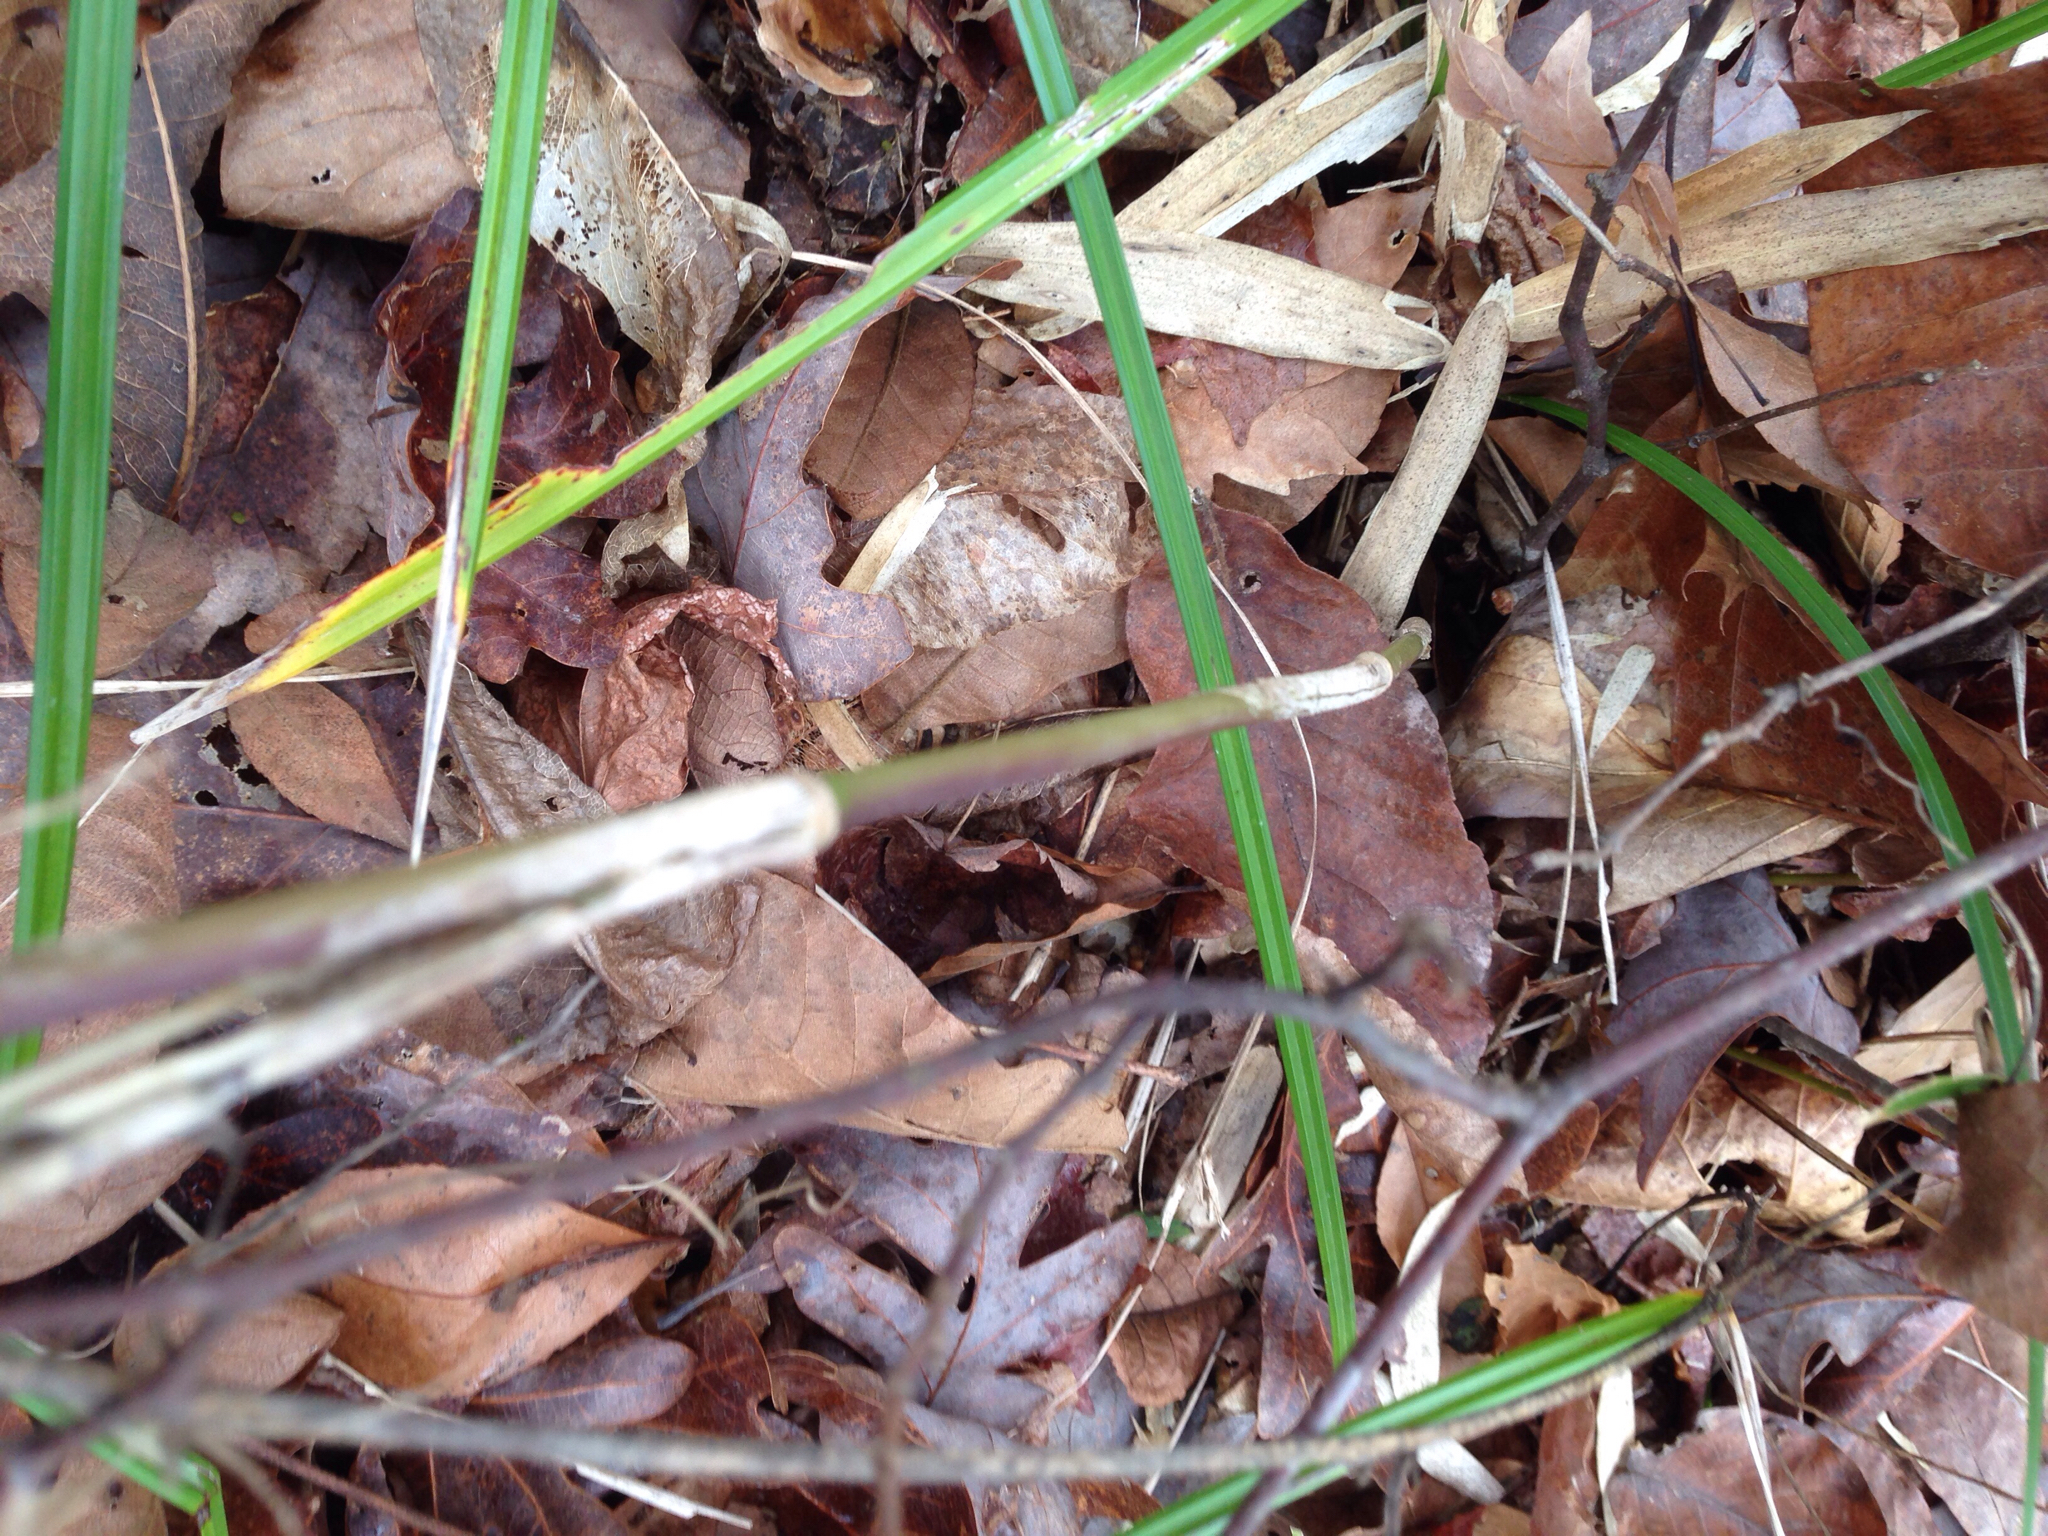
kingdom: Plantae
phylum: Tracheophyta
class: Liliopsida
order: Poales
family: Poaceae
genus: Arundinaria
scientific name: Arundinaria gigantea
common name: Giant cane
